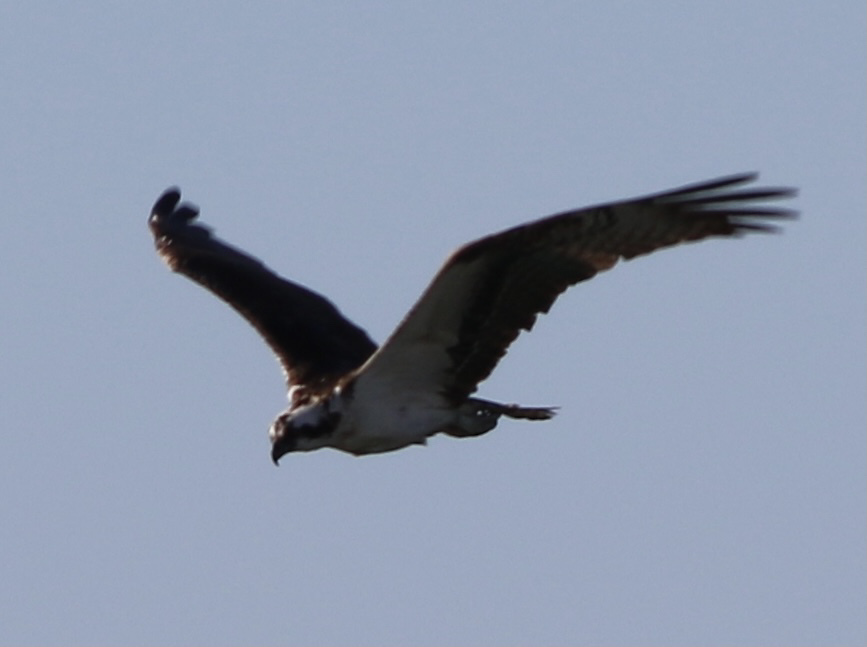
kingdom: Animalia
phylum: Chordata
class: Aves
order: Accipitriformes
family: Pandionidae
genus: Pandion
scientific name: Pandion haliaetus
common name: Osprey
